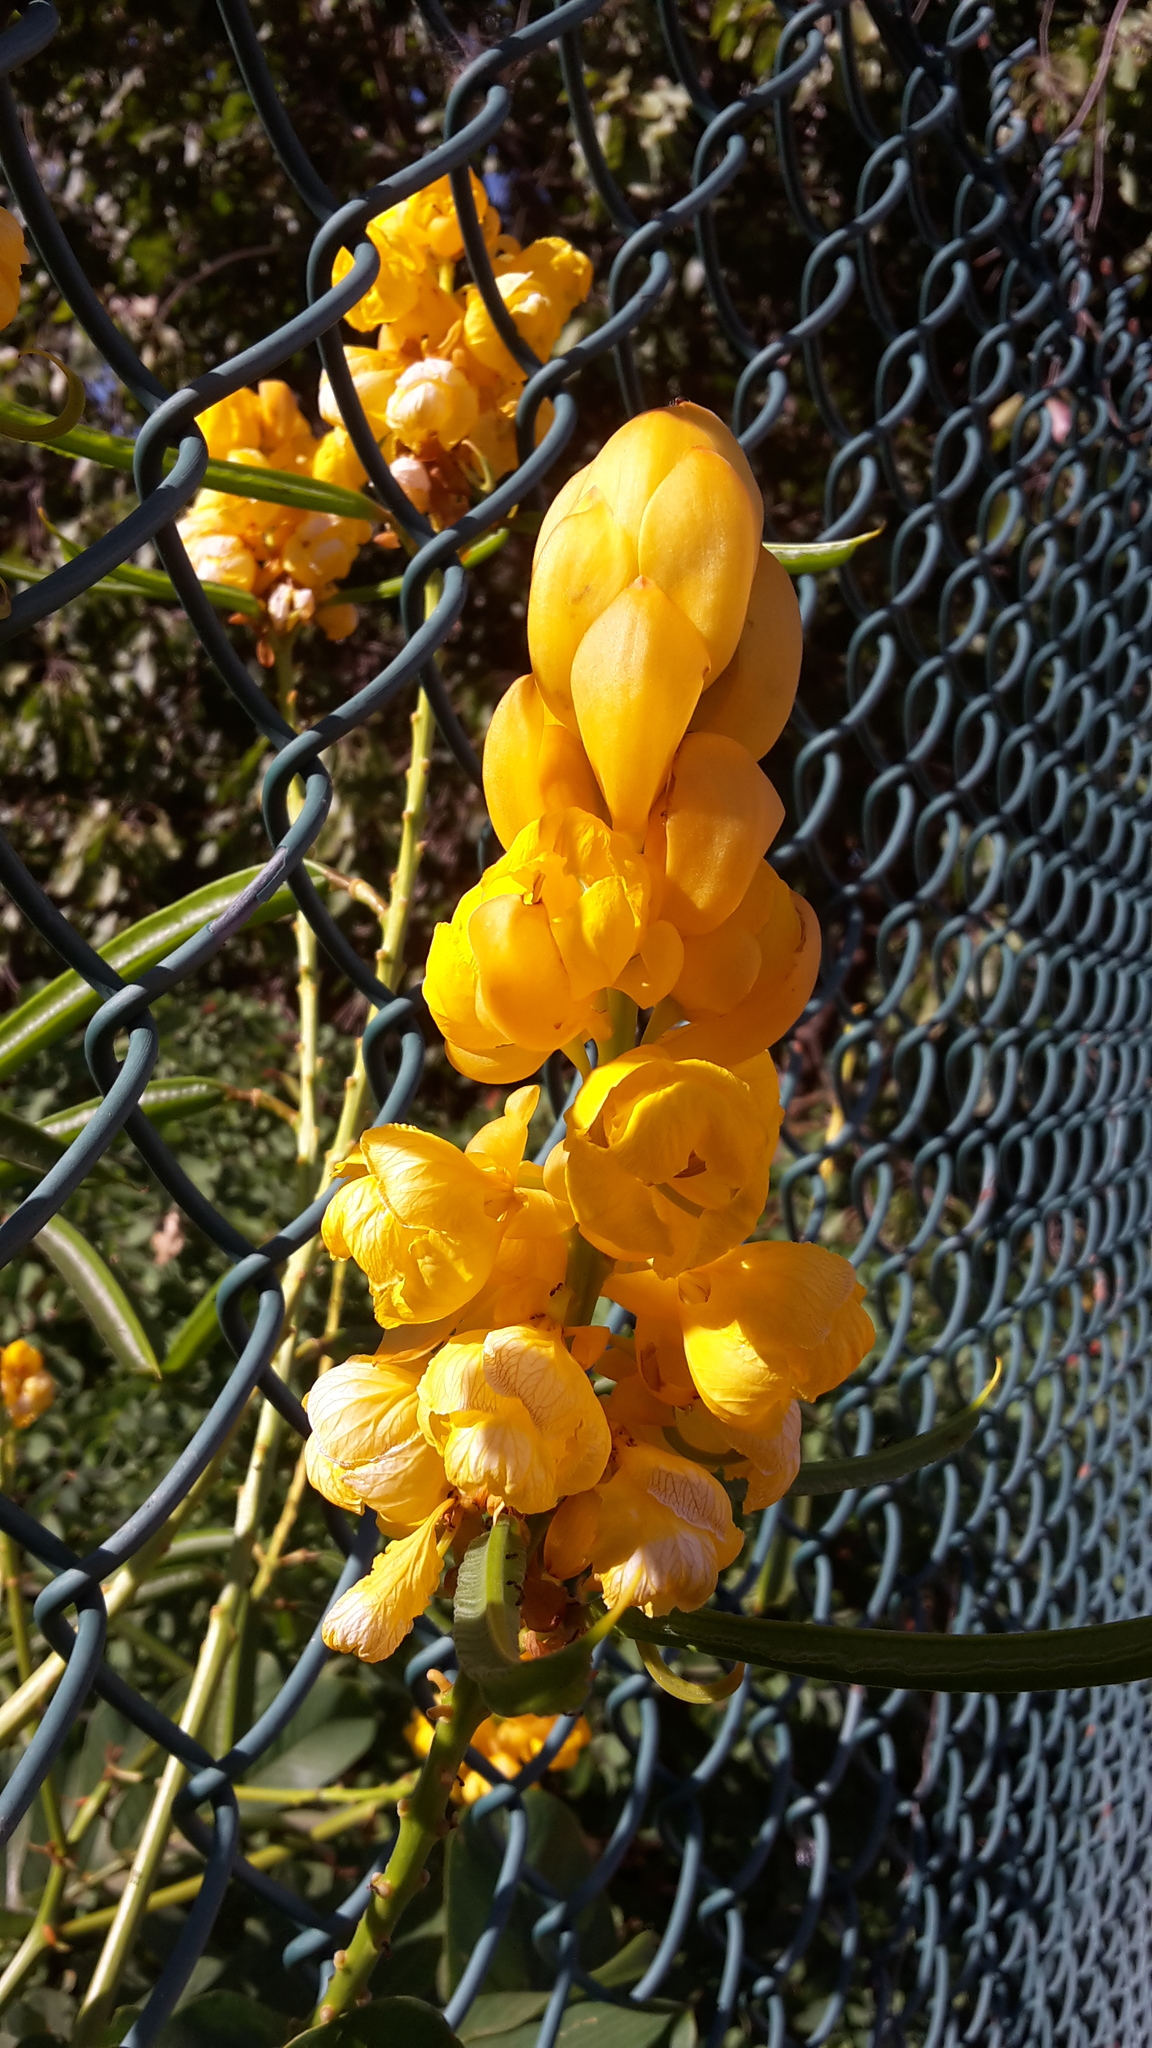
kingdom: Plantae
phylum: Tracheophyta
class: Magnoliopsida
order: Fabales
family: Fabaceae
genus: Senna
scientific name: Senna alata
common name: Emperor's candlesticks
